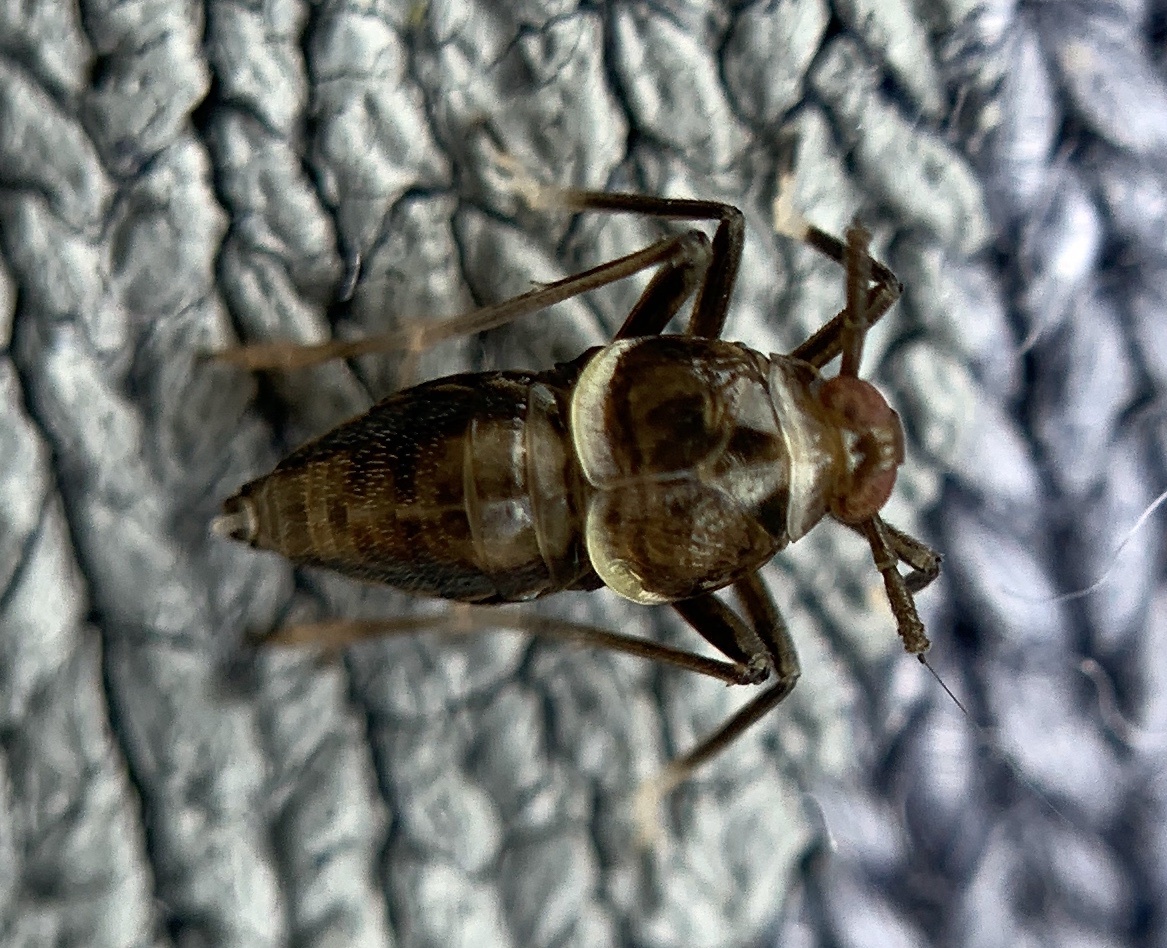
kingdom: Animalia
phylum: Arthropoda
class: Insecta
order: Hemiptera
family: Delphacidae
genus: Pissonotus
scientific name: Pissonotus muiri
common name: Delphacorid planthopper
